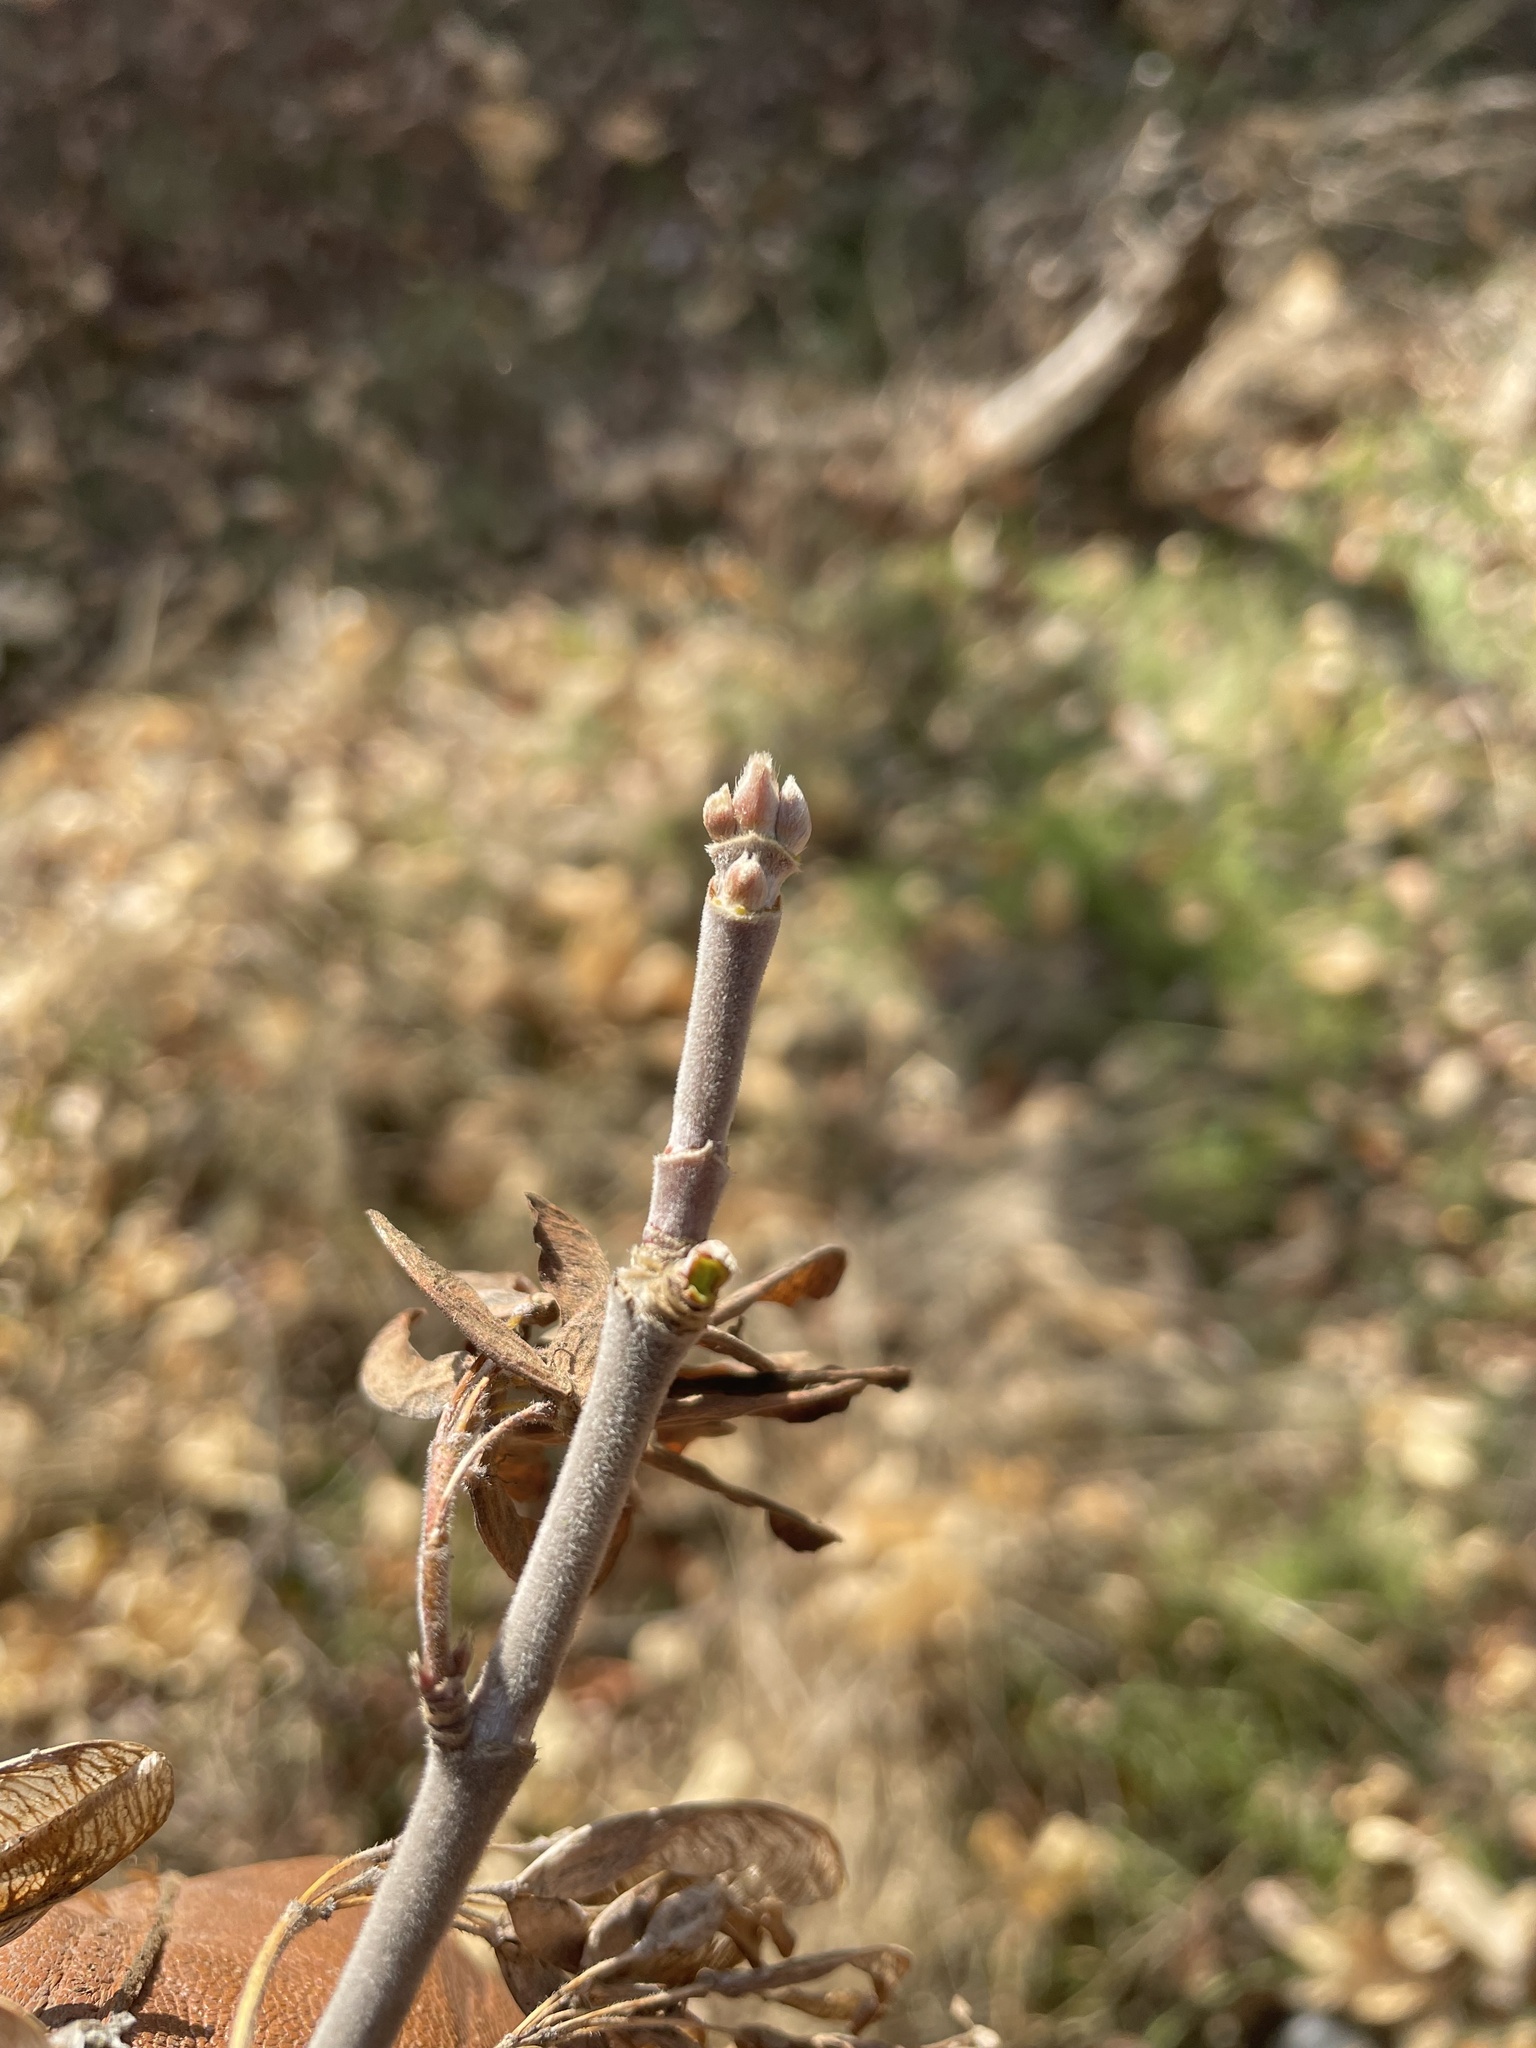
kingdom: Plantae
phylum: Tracheophyta
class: Magnoliopsida
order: Sapindales
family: Sapindaceae
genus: Acer
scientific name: Acer negundo
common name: Ashleaf maple
